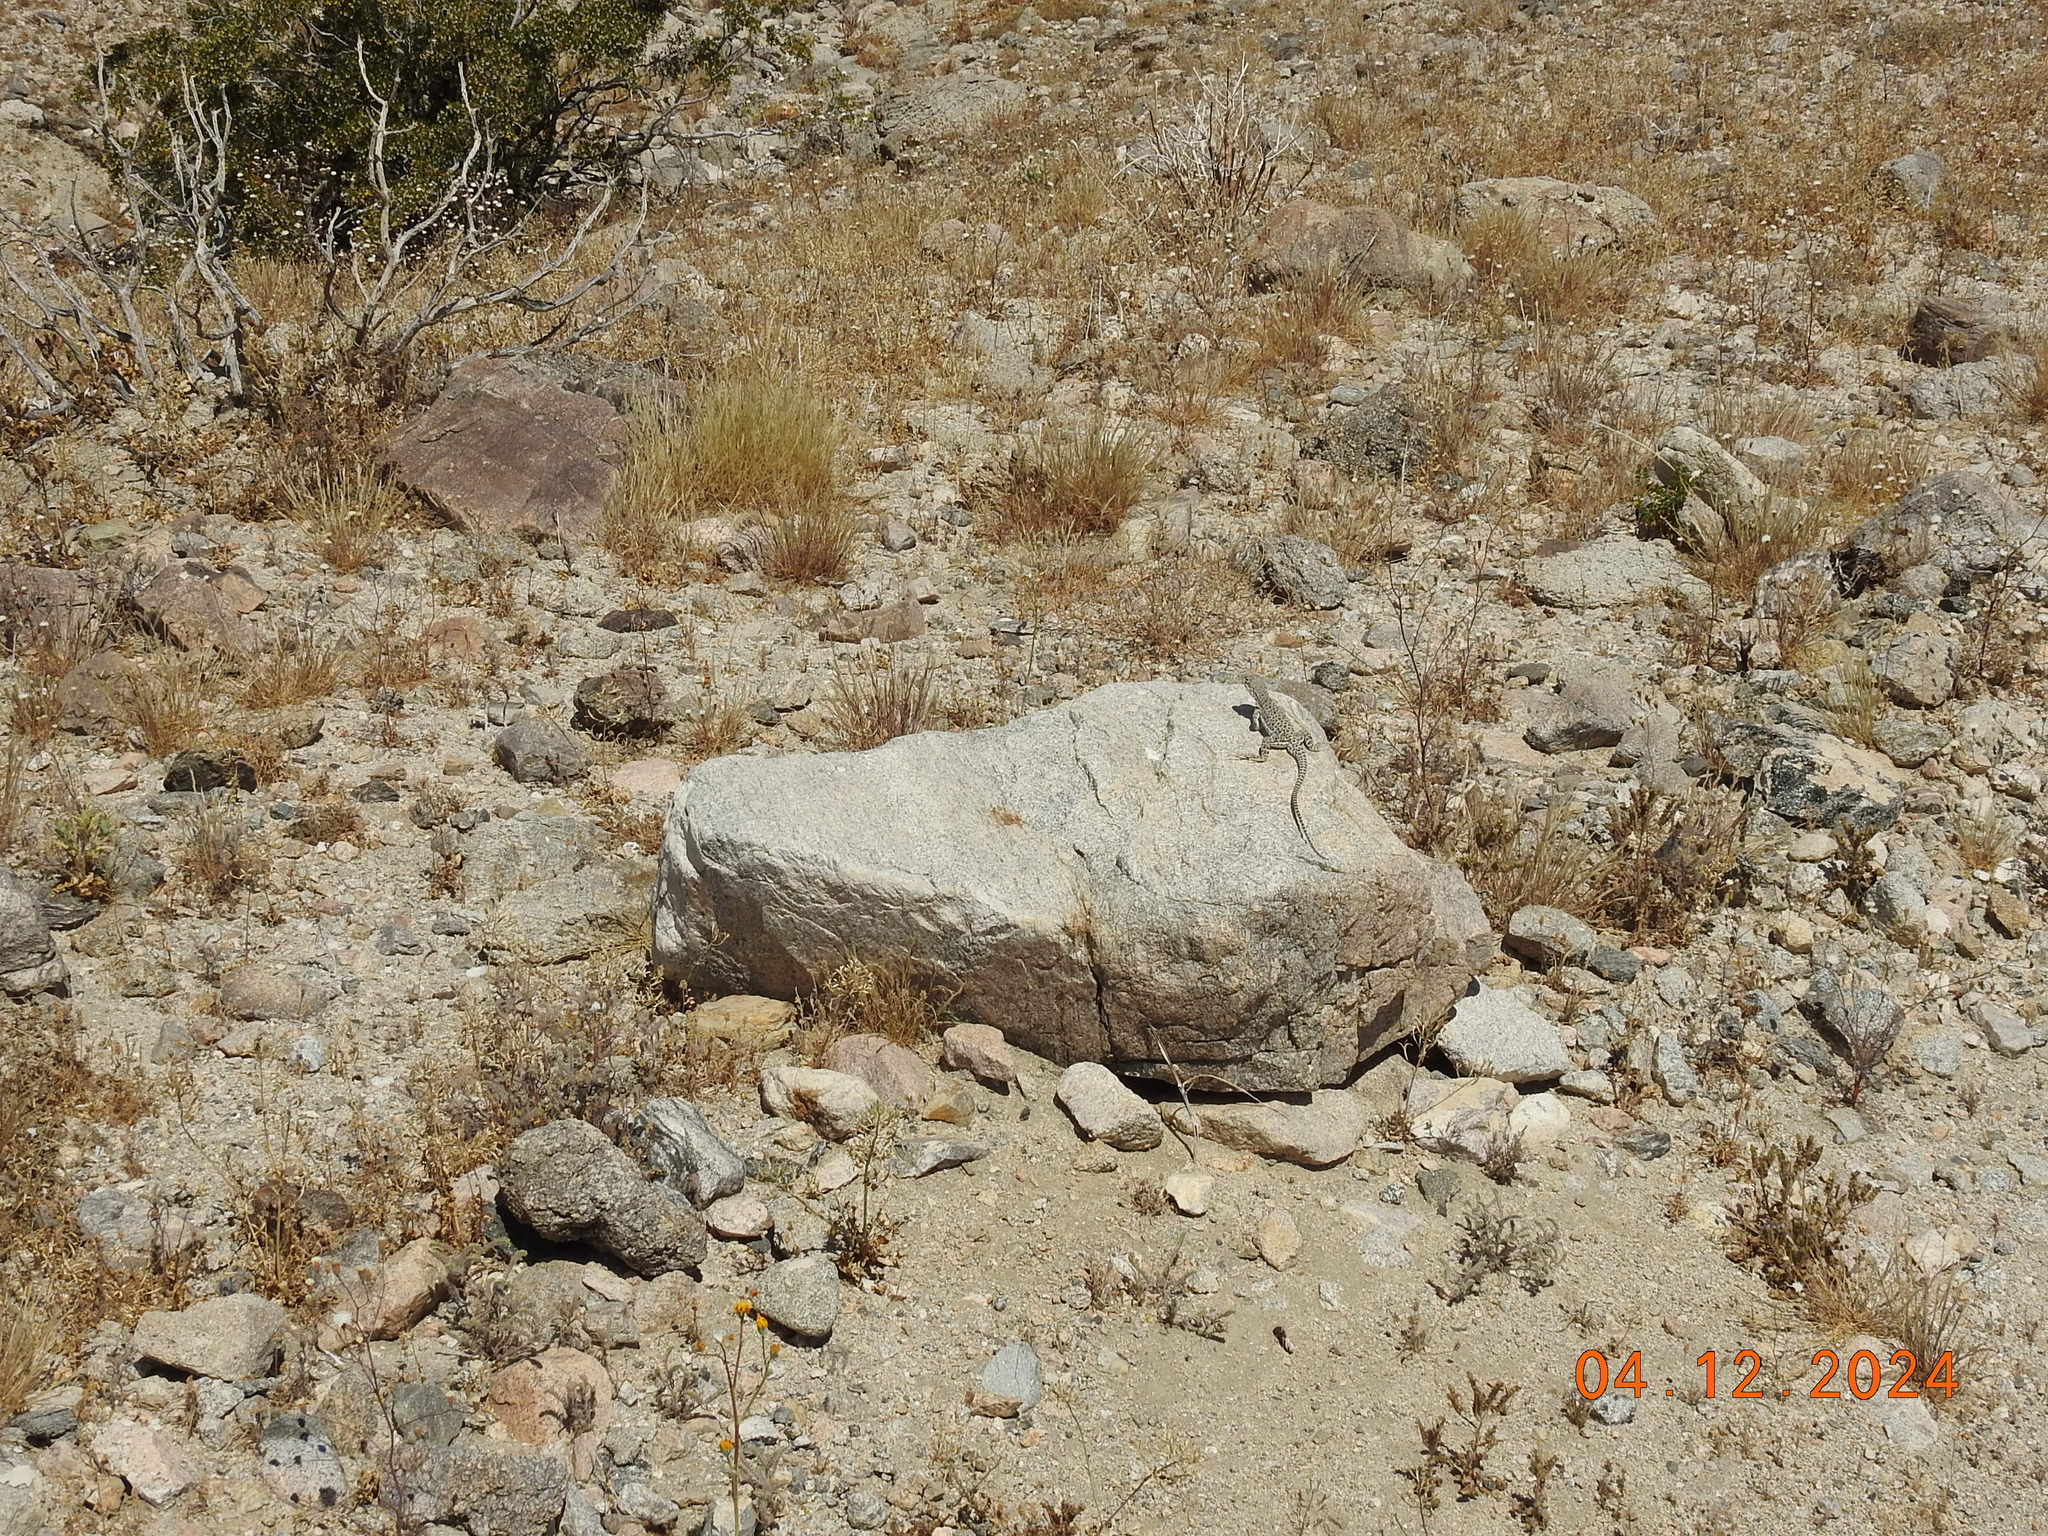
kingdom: Animalia
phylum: Chordata
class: Squamata
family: Crotaphytidae
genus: Gambelia
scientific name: Gambelia wislizenii
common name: Longnose leopard lizard
